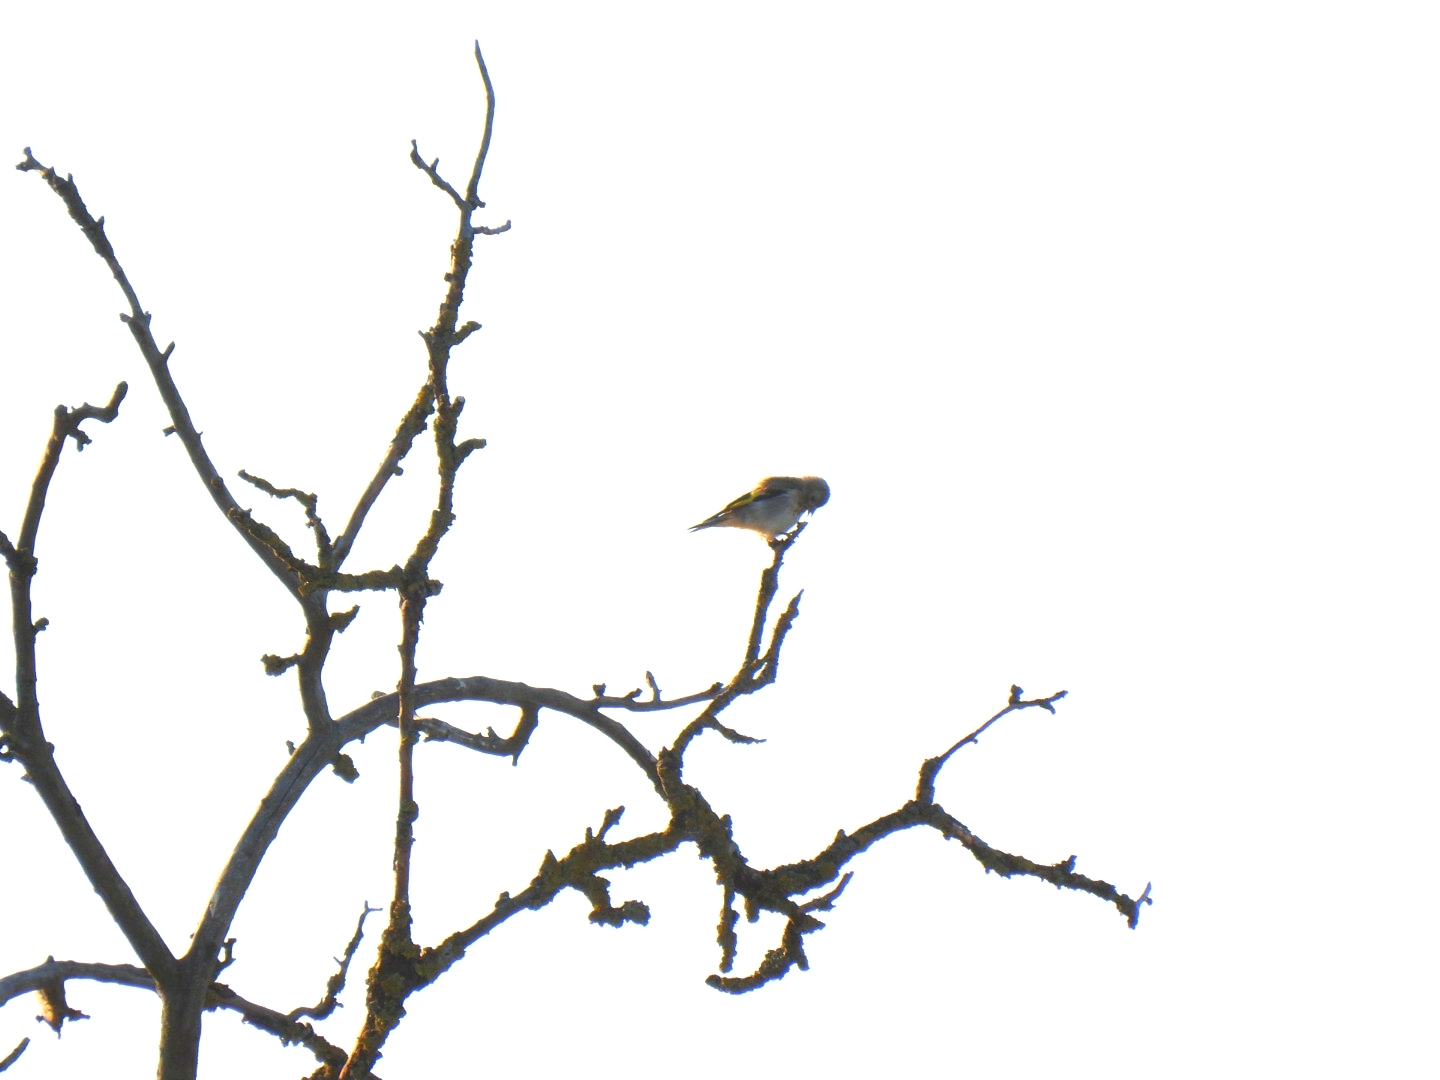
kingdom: Animalia
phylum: Chordata
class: Aves
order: Passeriformes
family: Fringillidae
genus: Carduelis
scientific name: Carduelis carduelis
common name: European goldfinch
